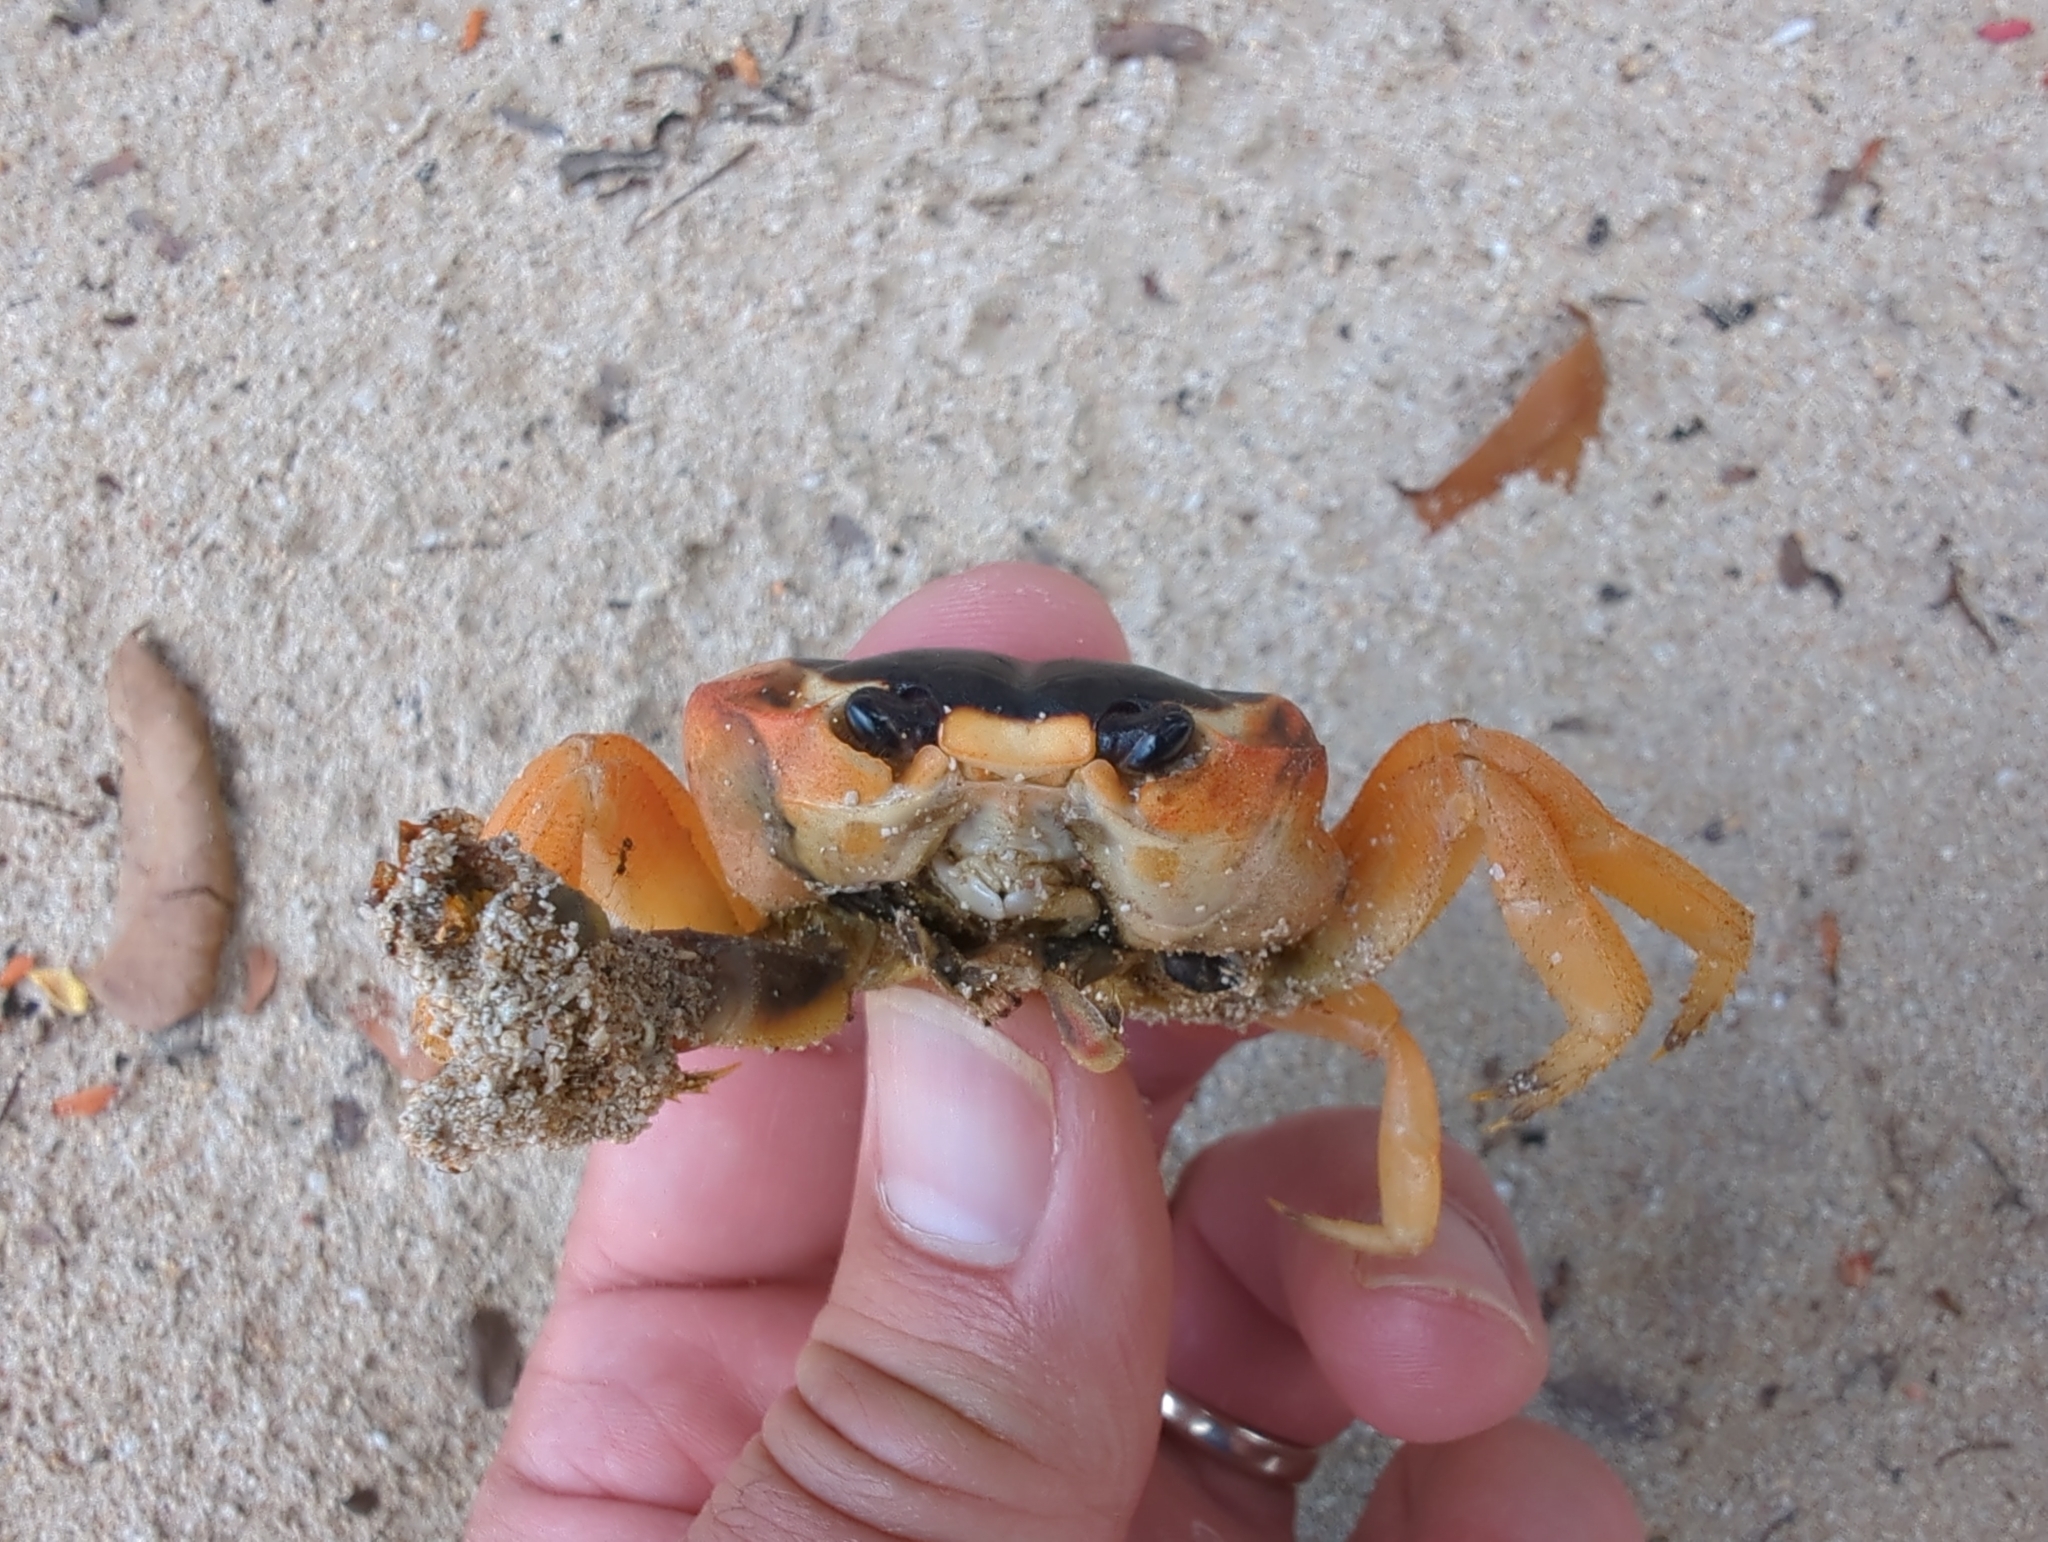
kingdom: Animalia
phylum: Arthropoda
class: Malacostraca
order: Decapoda
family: Gecarcinidae
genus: Gecarcinus
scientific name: Gecarcinus lateralis
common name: Bermuda land crab
